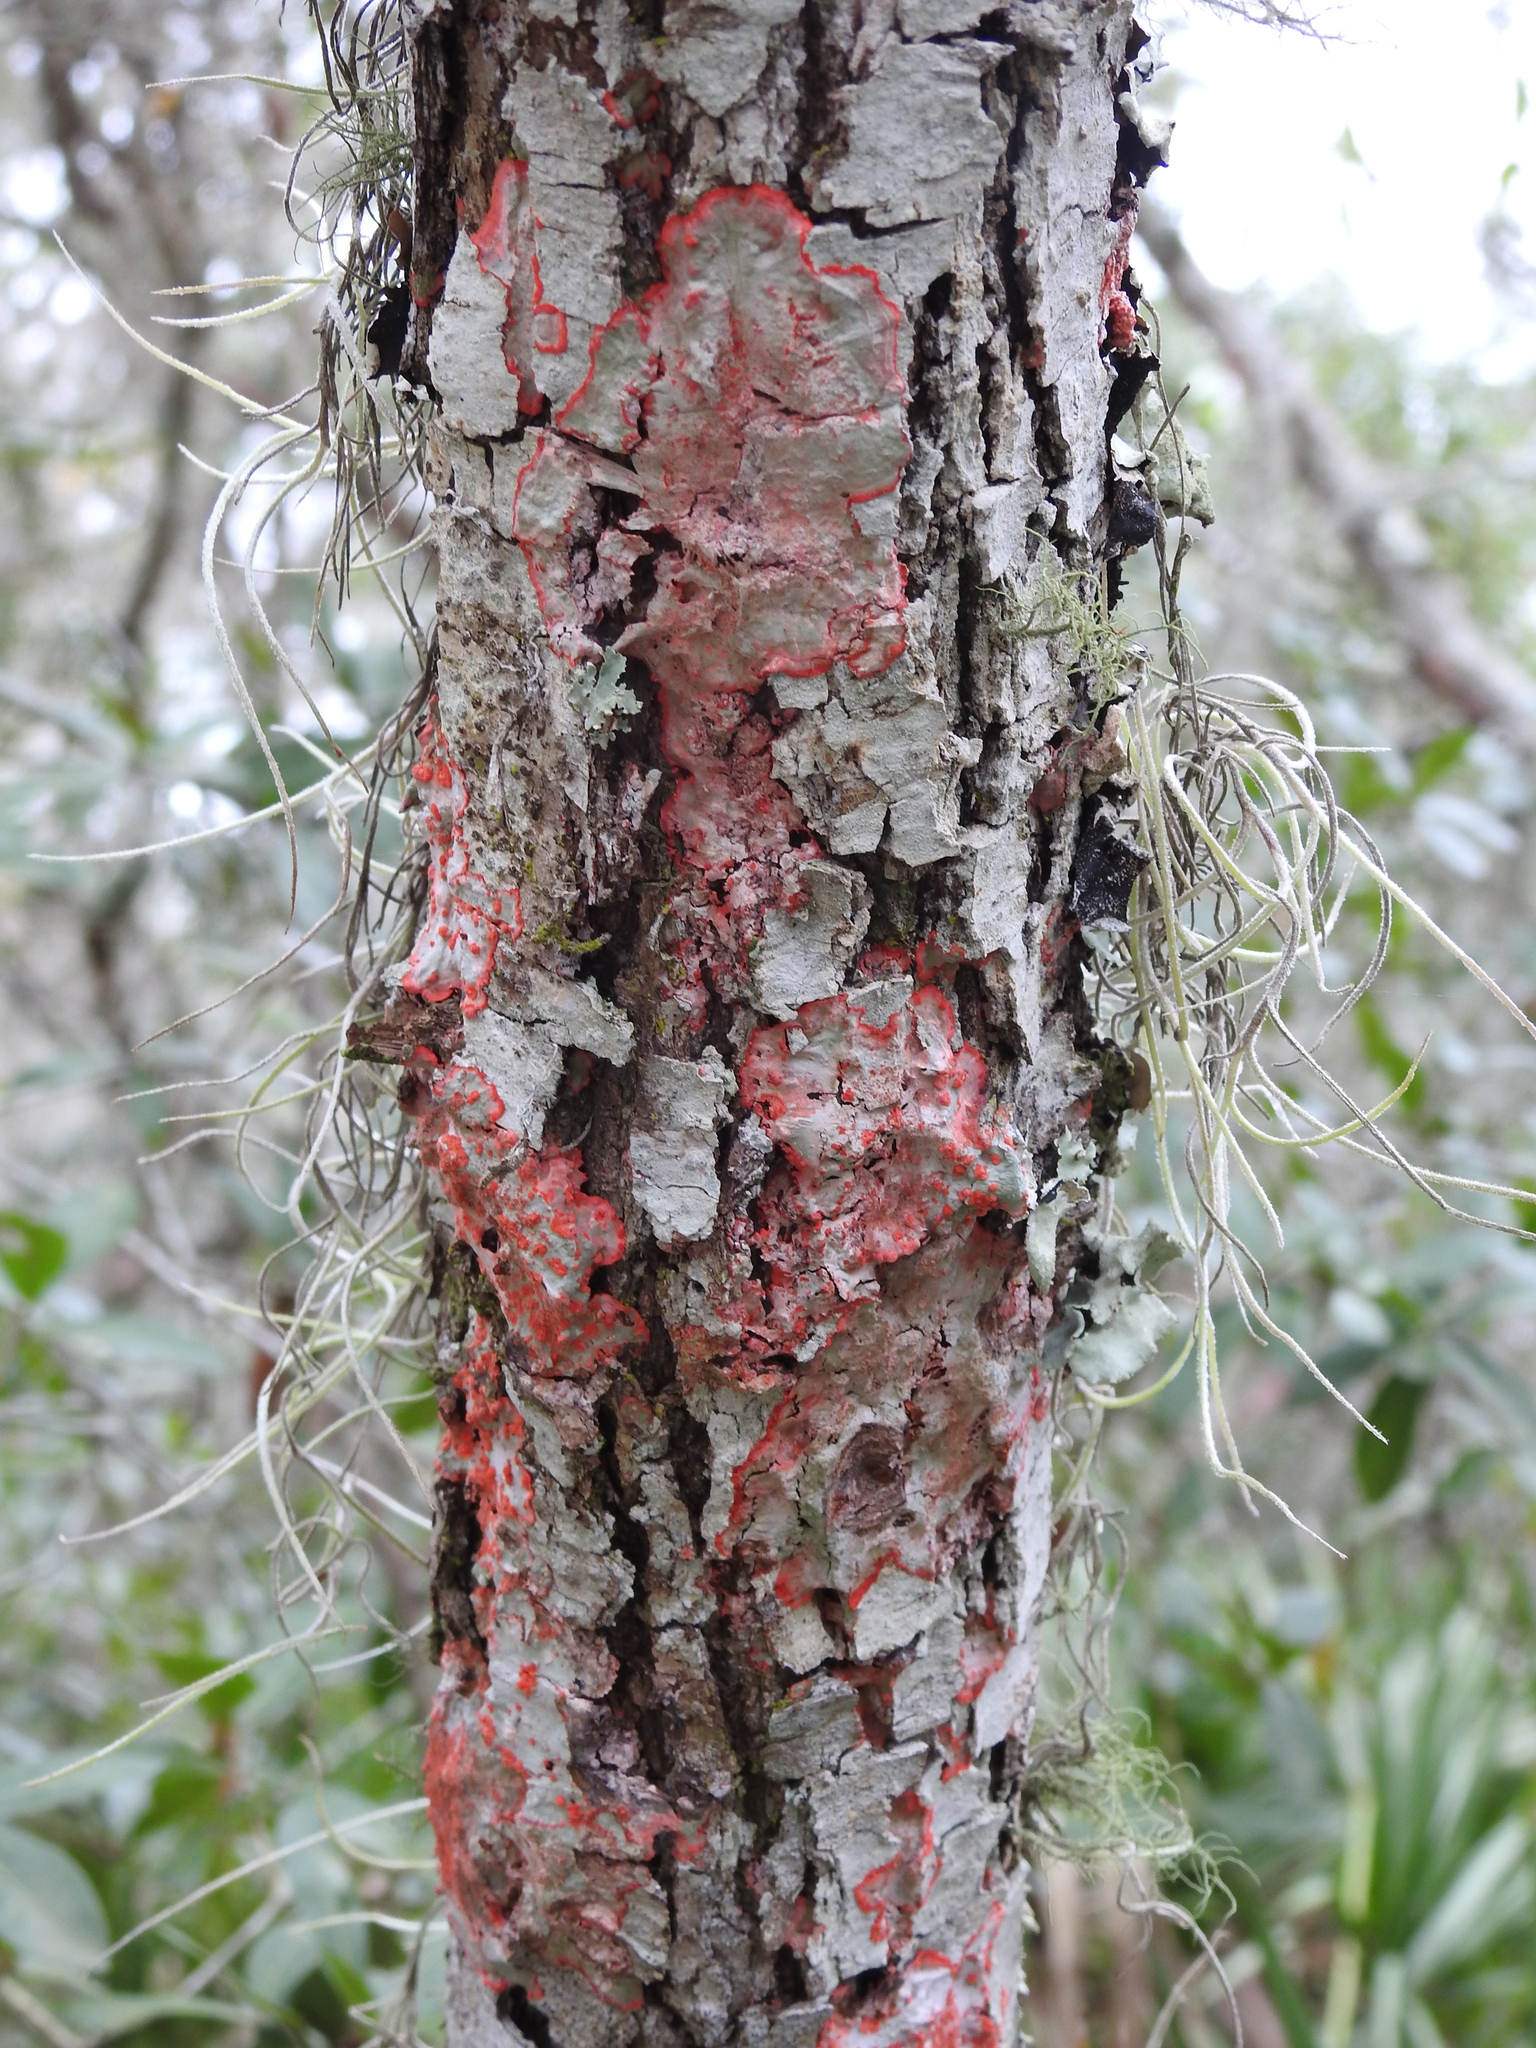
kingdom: Fungi
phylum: Ascomycota
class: Arthoniomycetes
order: Arthoniales
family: Arthoniaceae
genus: Herpothallon
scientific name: Herpothallon rubrocinctum
